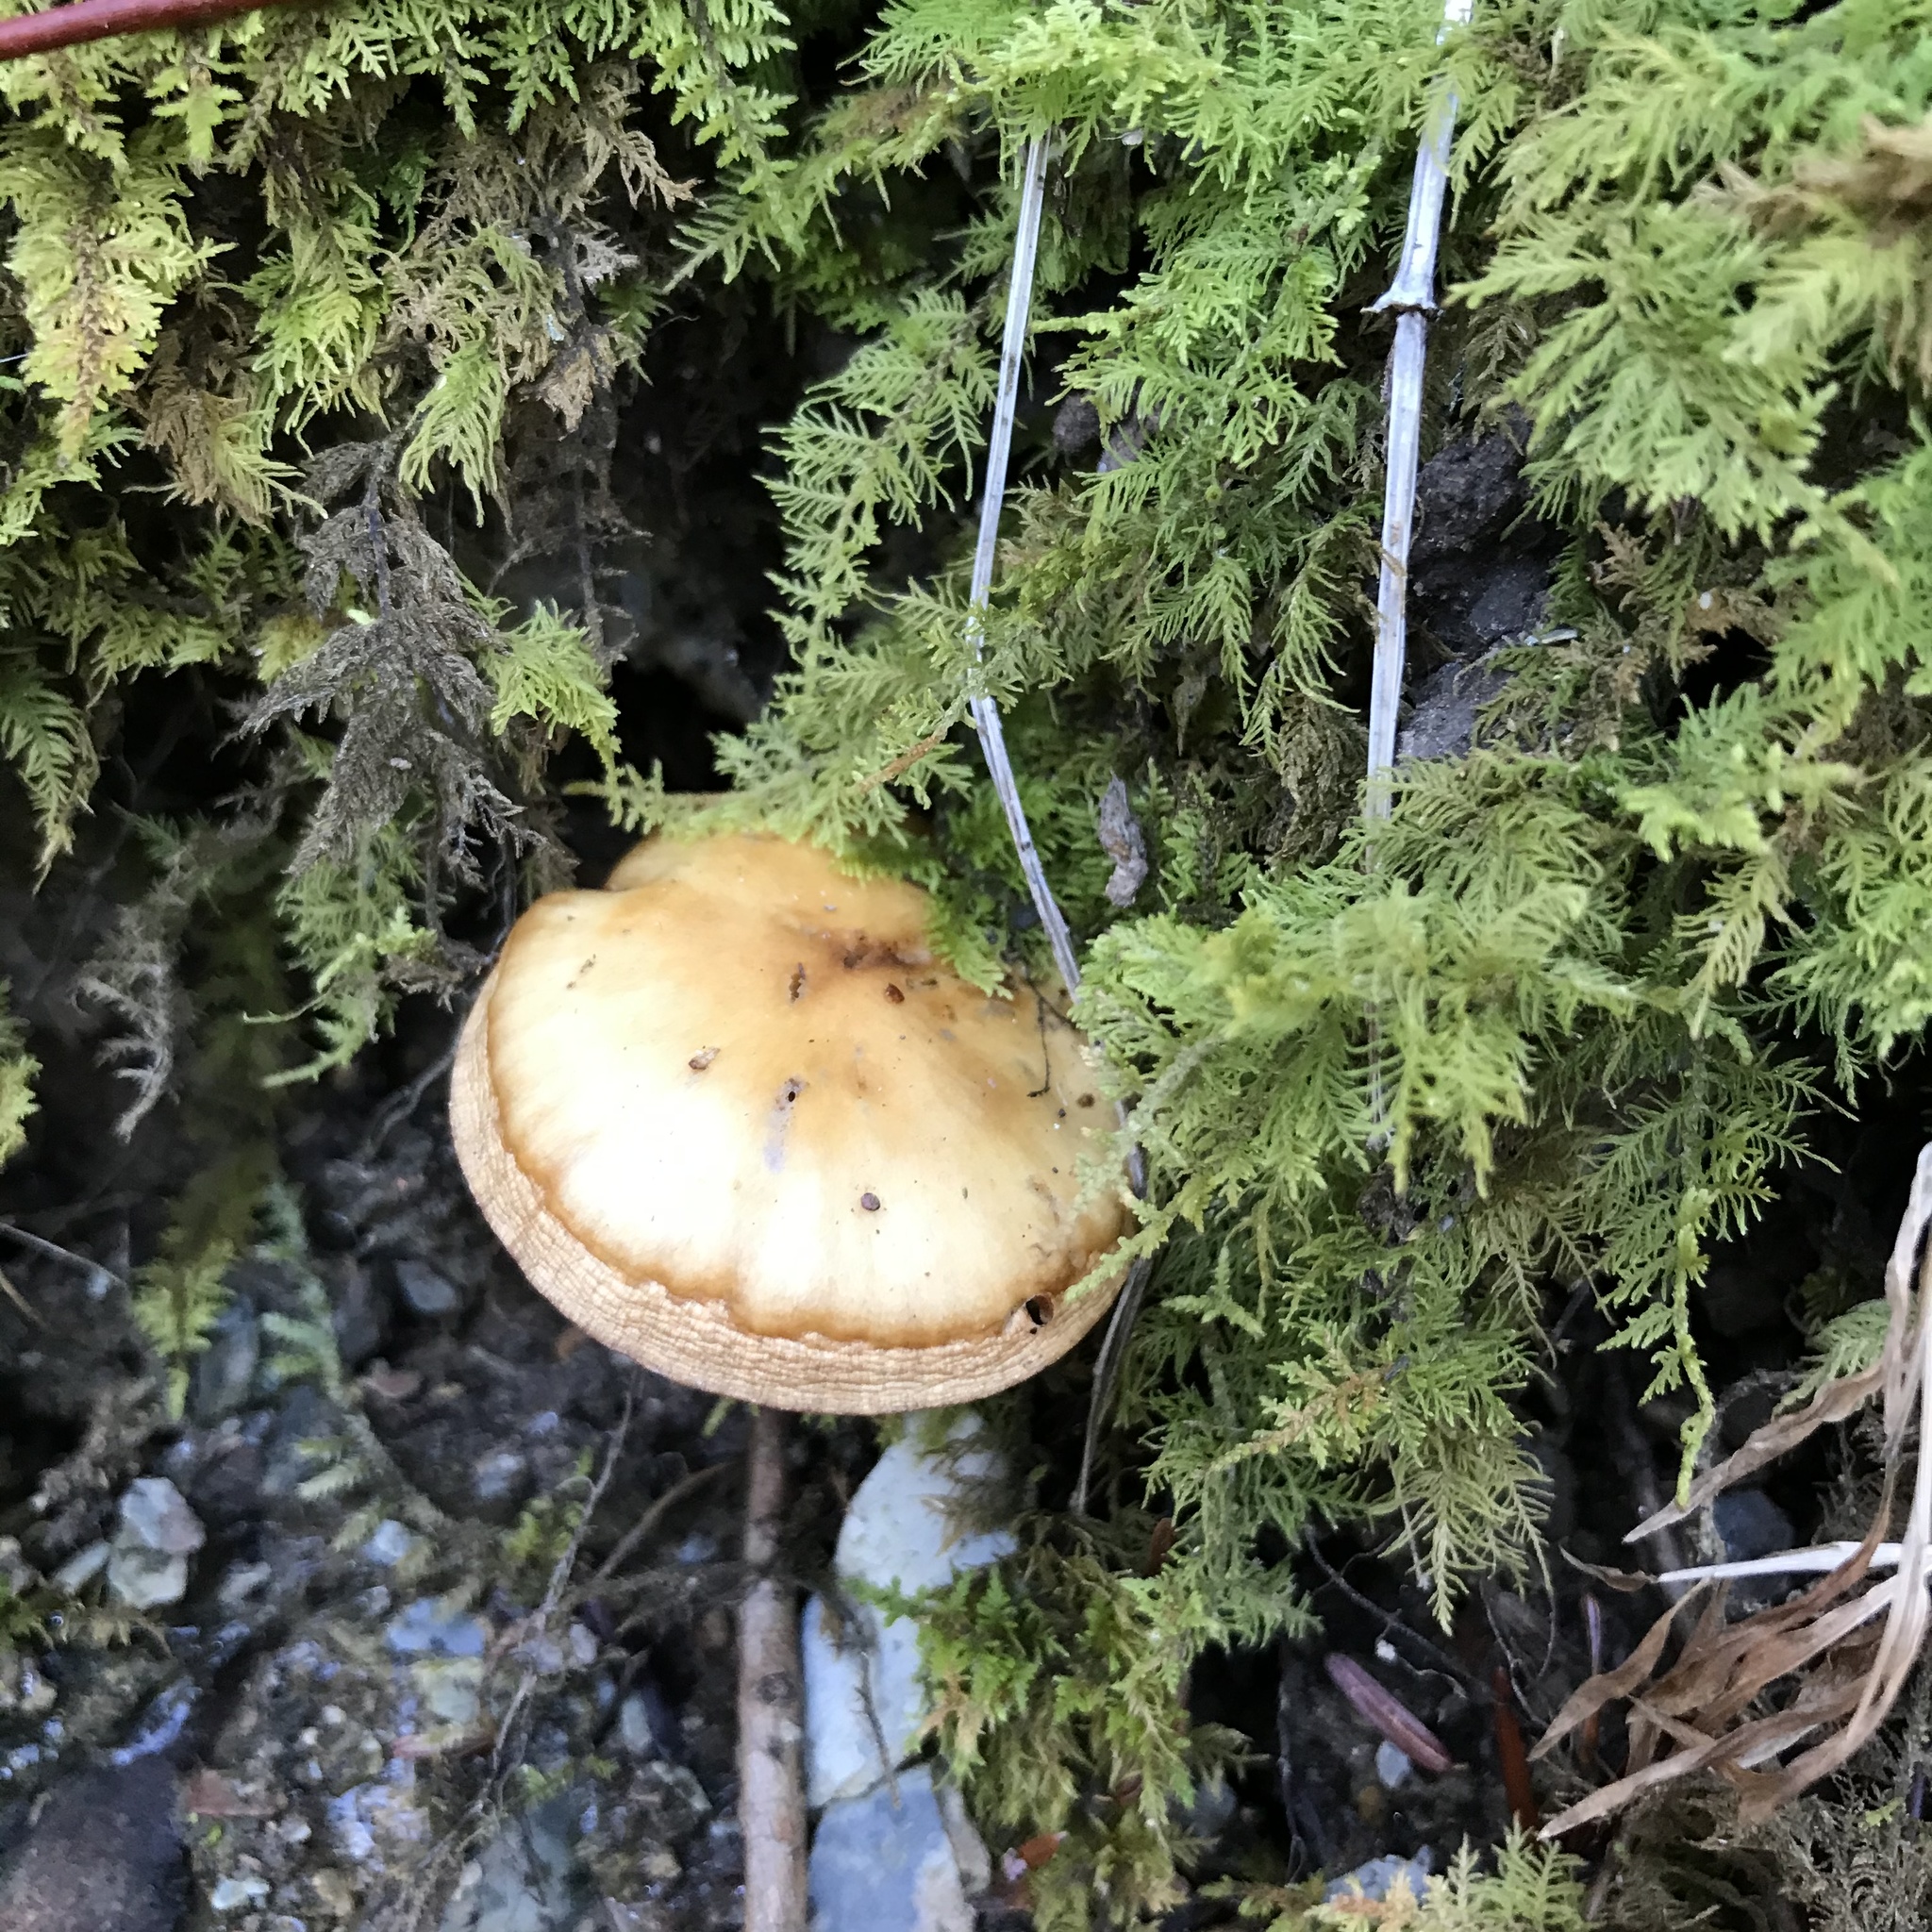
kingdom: Fungi
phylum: Basidiomycota
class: Agaricomycetes
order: Agaricales
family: Hymenogastraceae
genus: Galerina
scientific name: Galerina marginata
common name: Funeral bell
